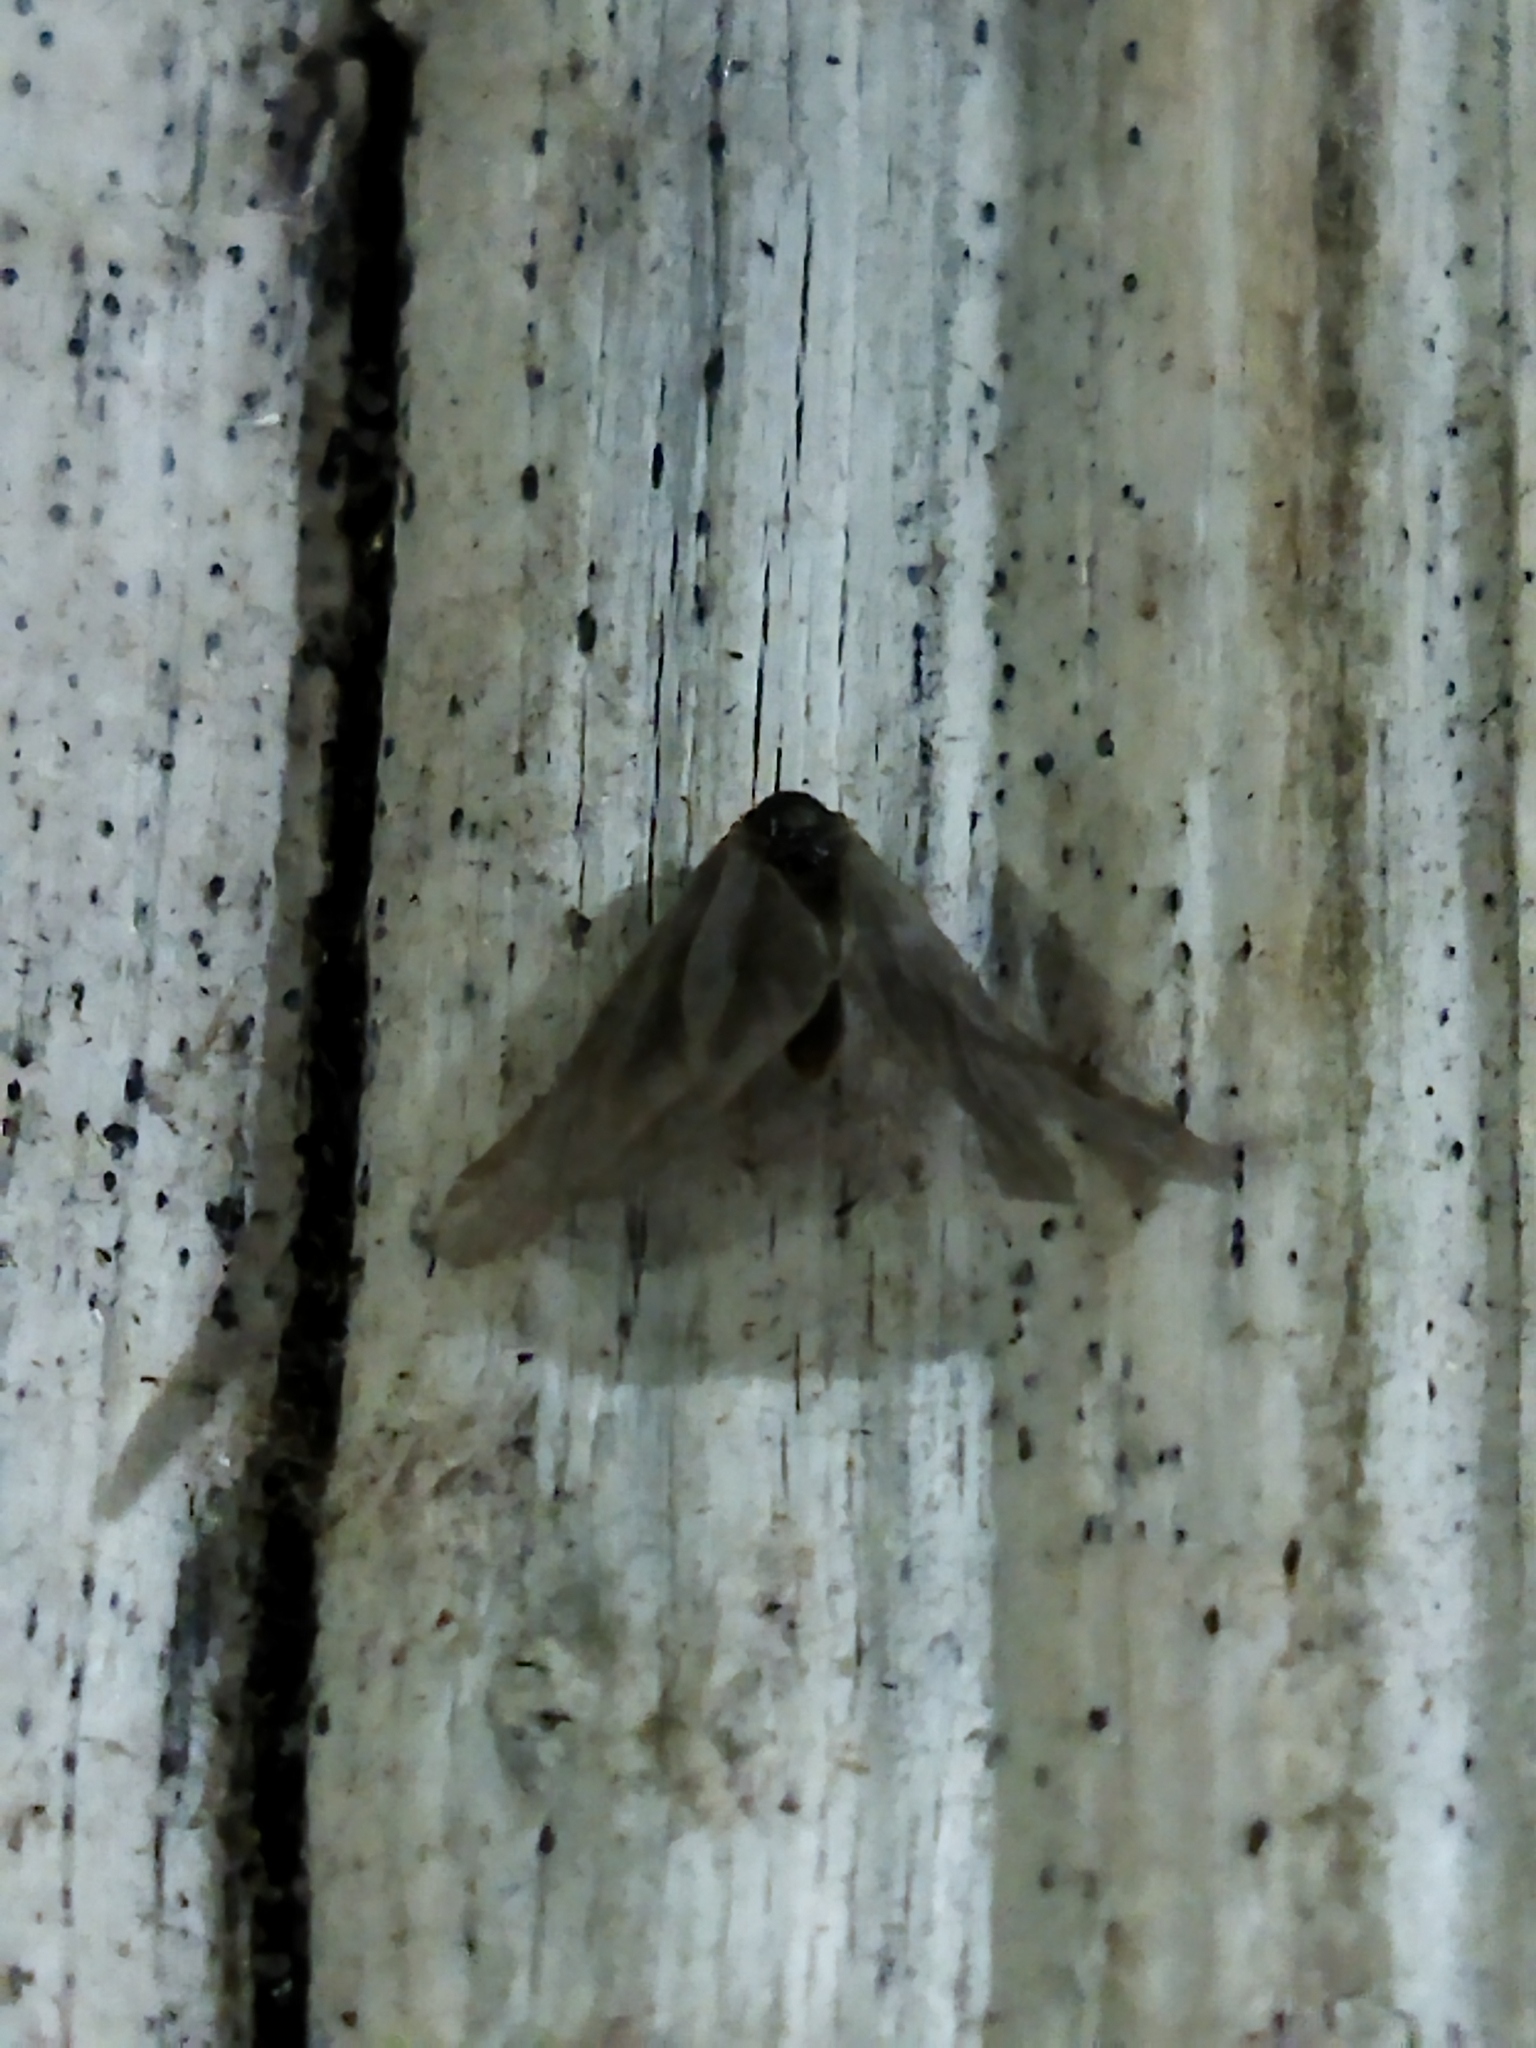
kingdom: Animalia
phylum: Arthropoda
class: Insecta
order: Lepidoptera
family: Psychidae
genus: Rebelia
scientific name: Rebelia perlucidella
